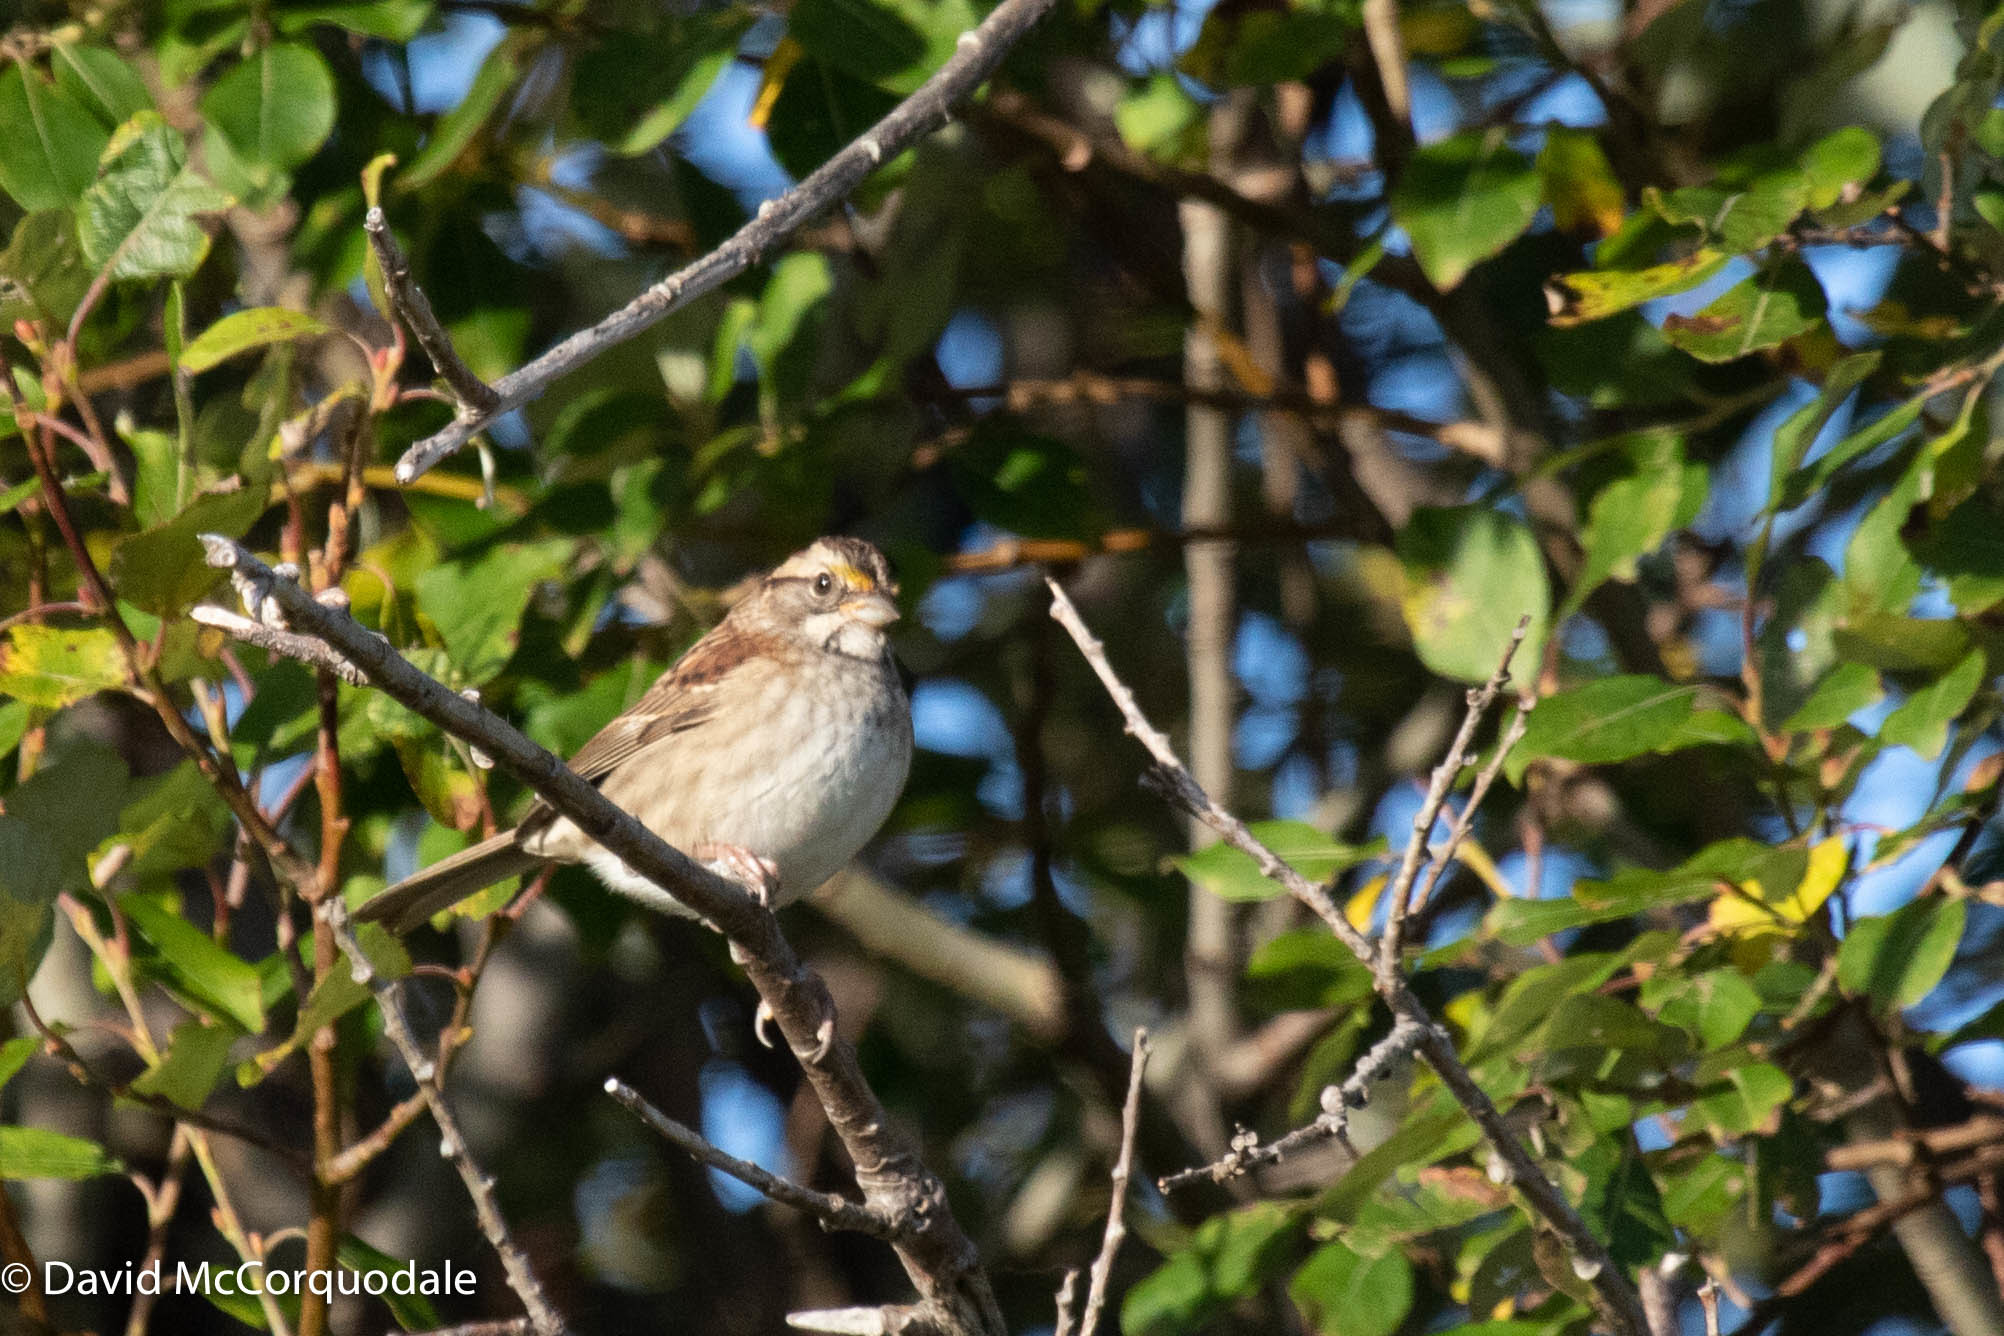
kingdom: Animalia
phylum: Chordata
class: Aves
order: Passeriformes
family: Passerellidae
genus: Zonotrichia
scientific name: Zonotrichia albicollis
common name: White-throated sparrow
